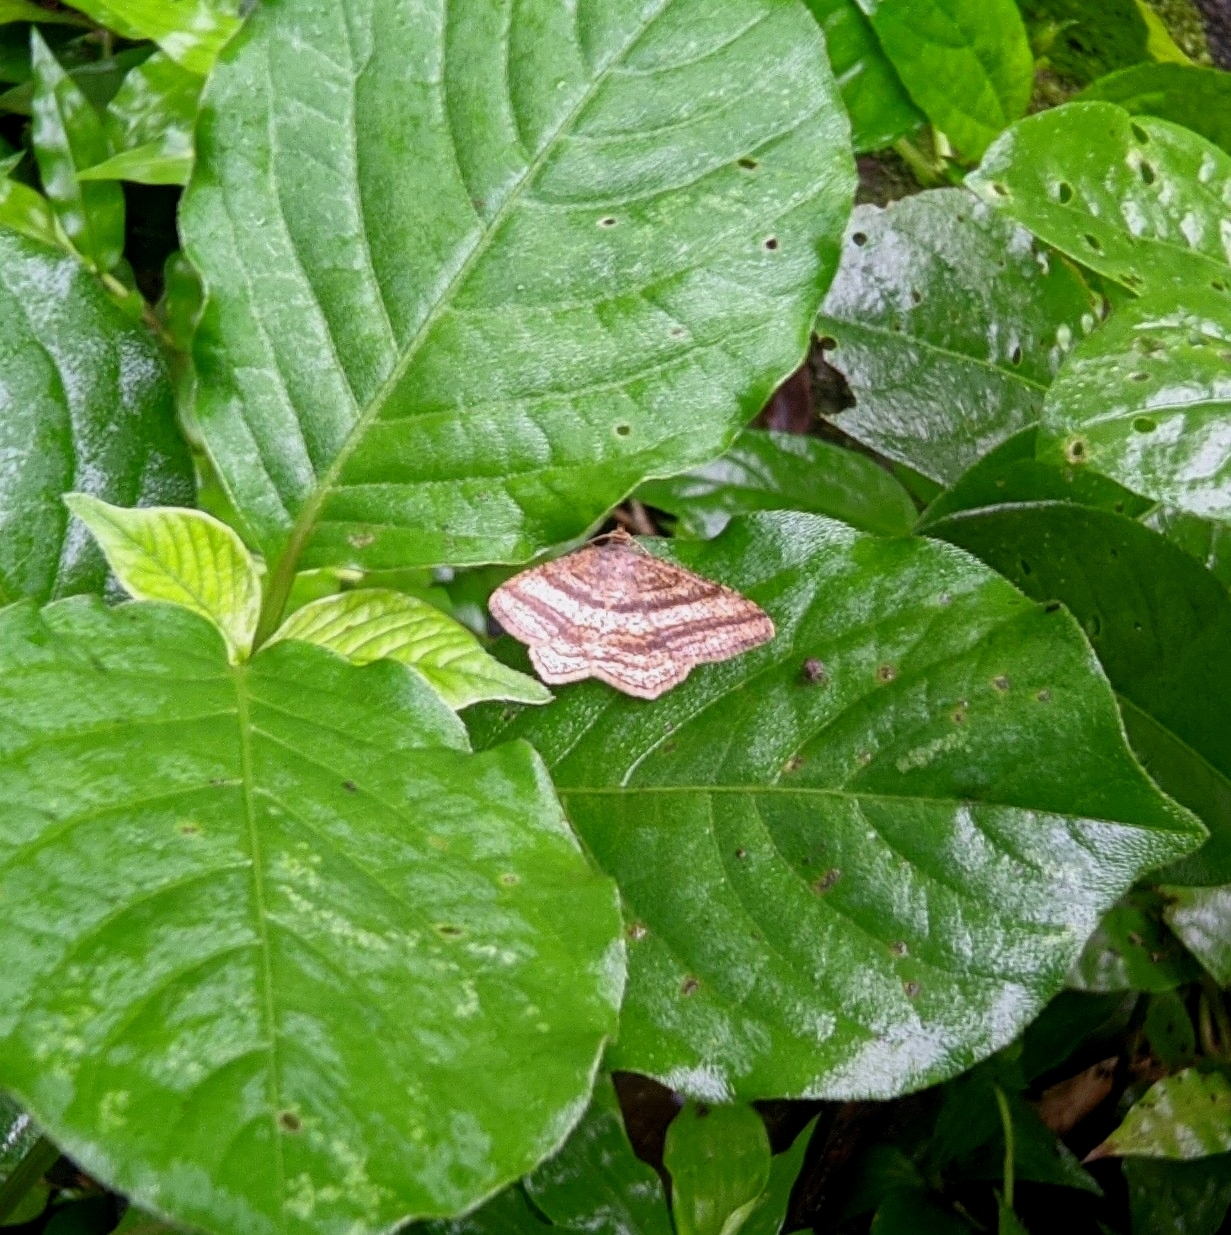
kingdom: Animalia
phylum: Arthropoda
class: Insecta
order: Lepidoptera
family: Geometridae
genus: Chiasmia
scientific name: Chiasmia fidoniata
